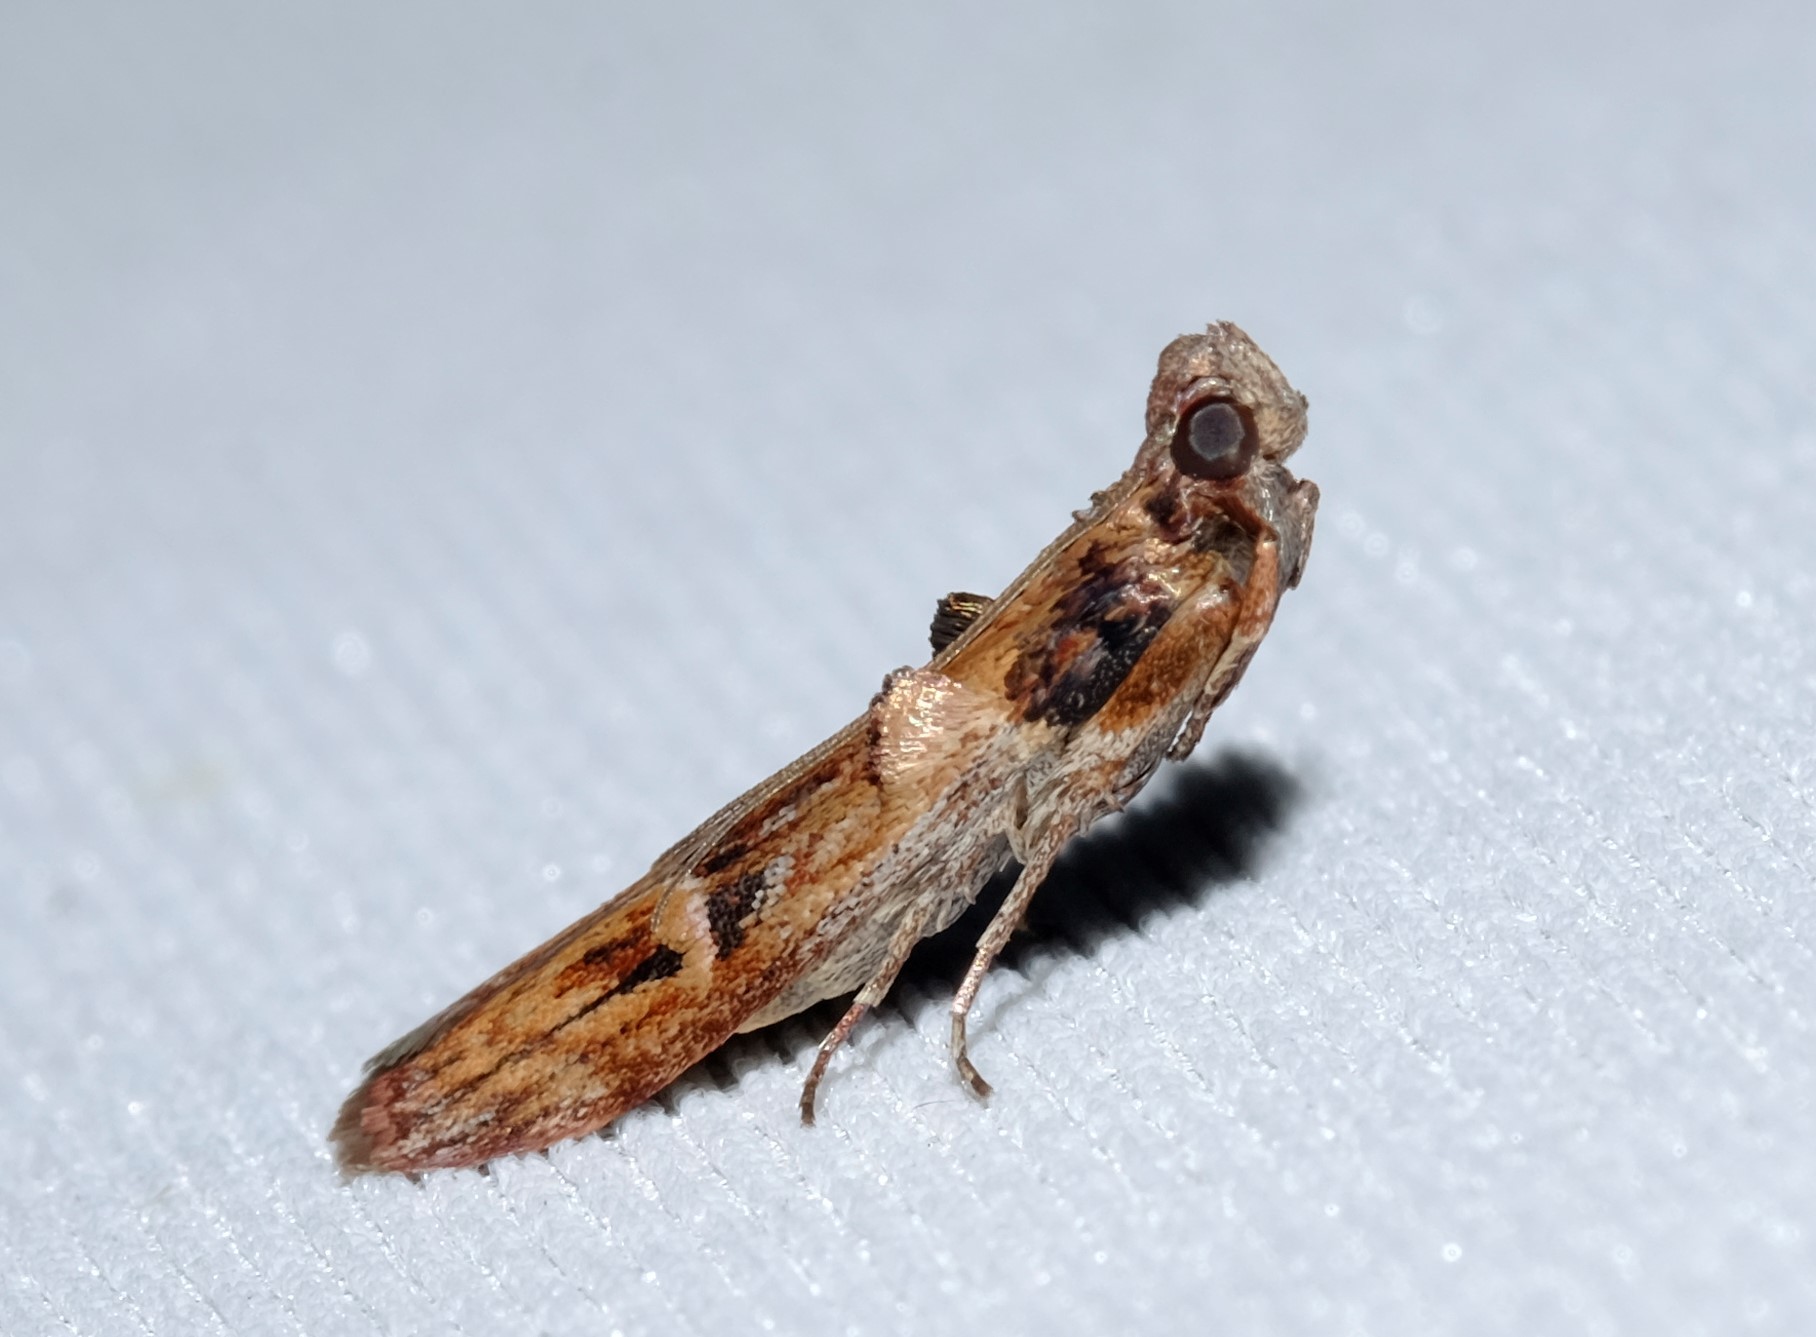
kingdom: Animalia
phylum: Arthropoda
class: Insecta
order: Lepidoptera
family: Pyralidae
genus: Balanomis
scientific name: Balanomis encyclia
